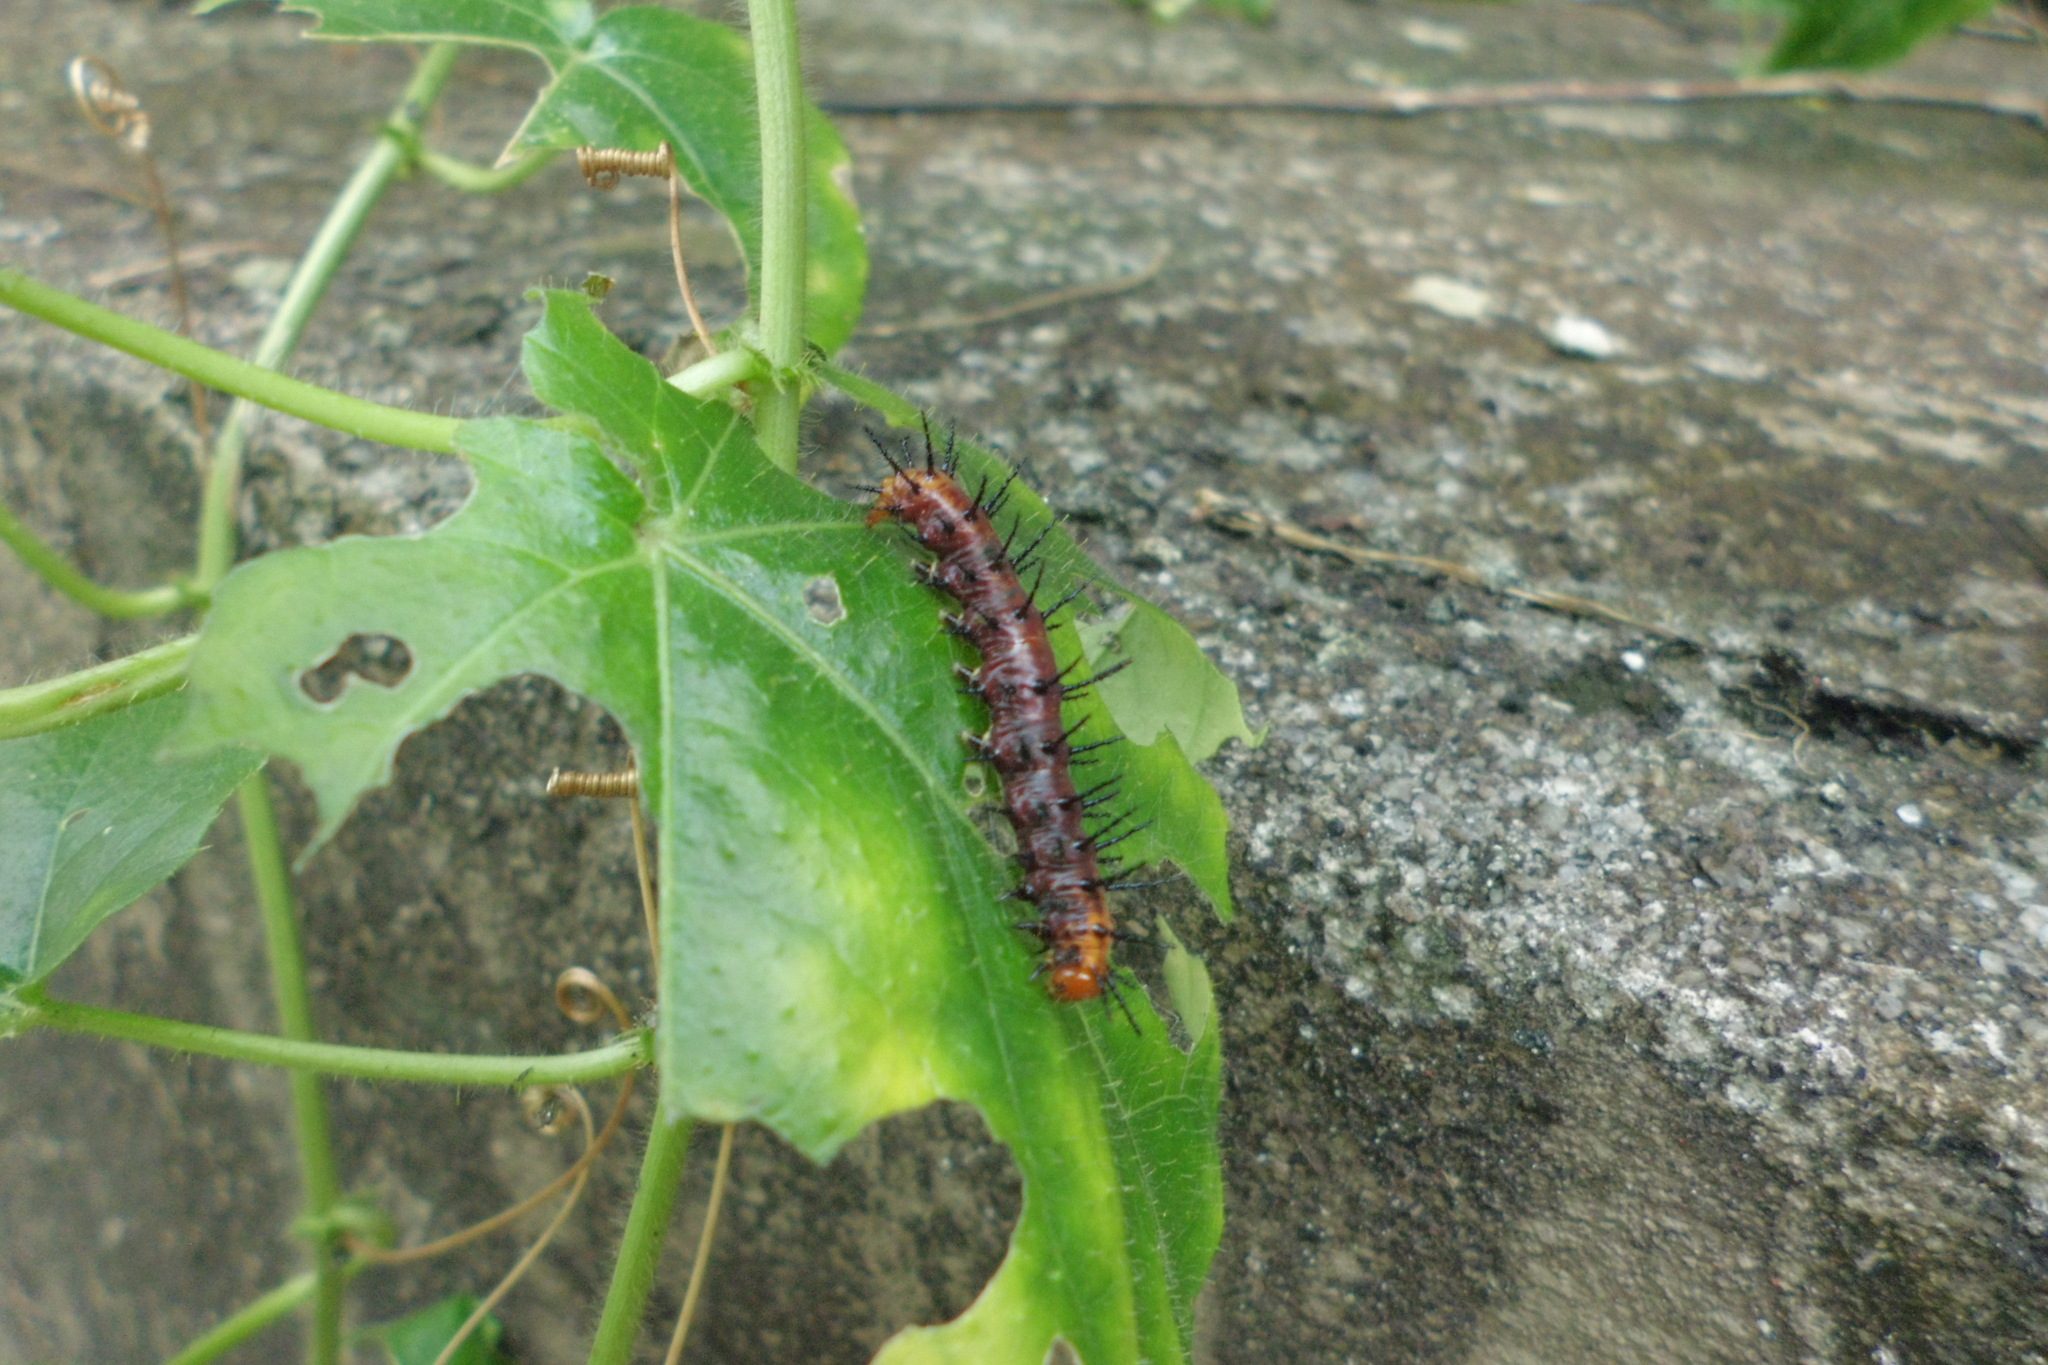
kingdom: Animalia
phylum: Arthropoda
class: Insecta
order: Lepidoptera
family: Nymphalidae
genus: Acraea
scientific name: Acraea terpsicore
